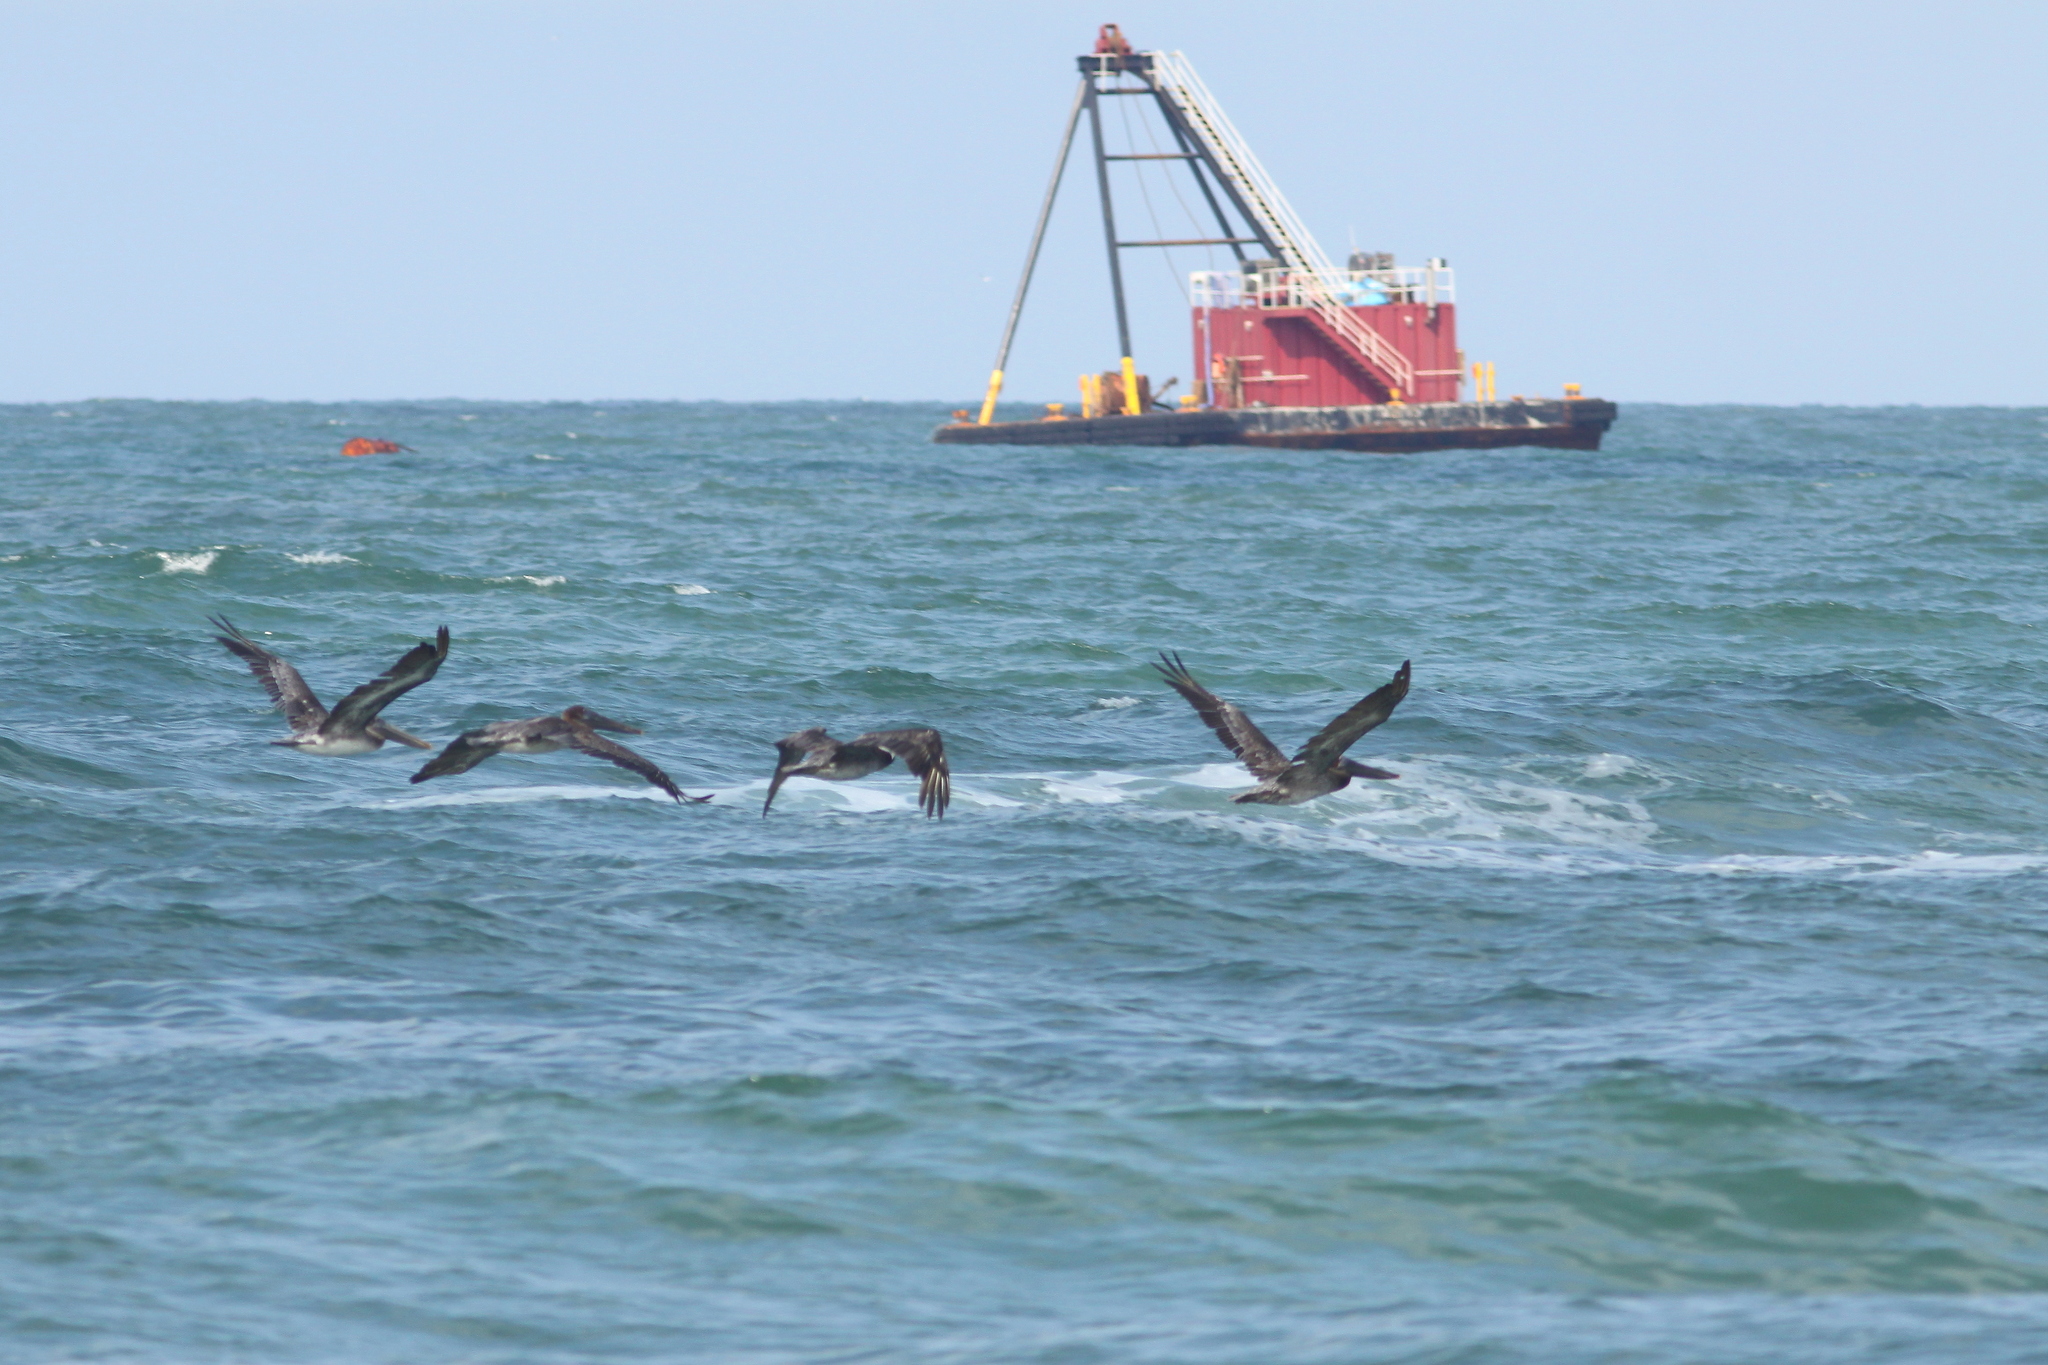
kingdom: Animalia
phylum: Chordata
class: Aves
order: Pelecaniformes
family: Pelecanidae
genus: Pelecanus
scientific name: Pelecanus occidentalis
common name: Brown pelican
